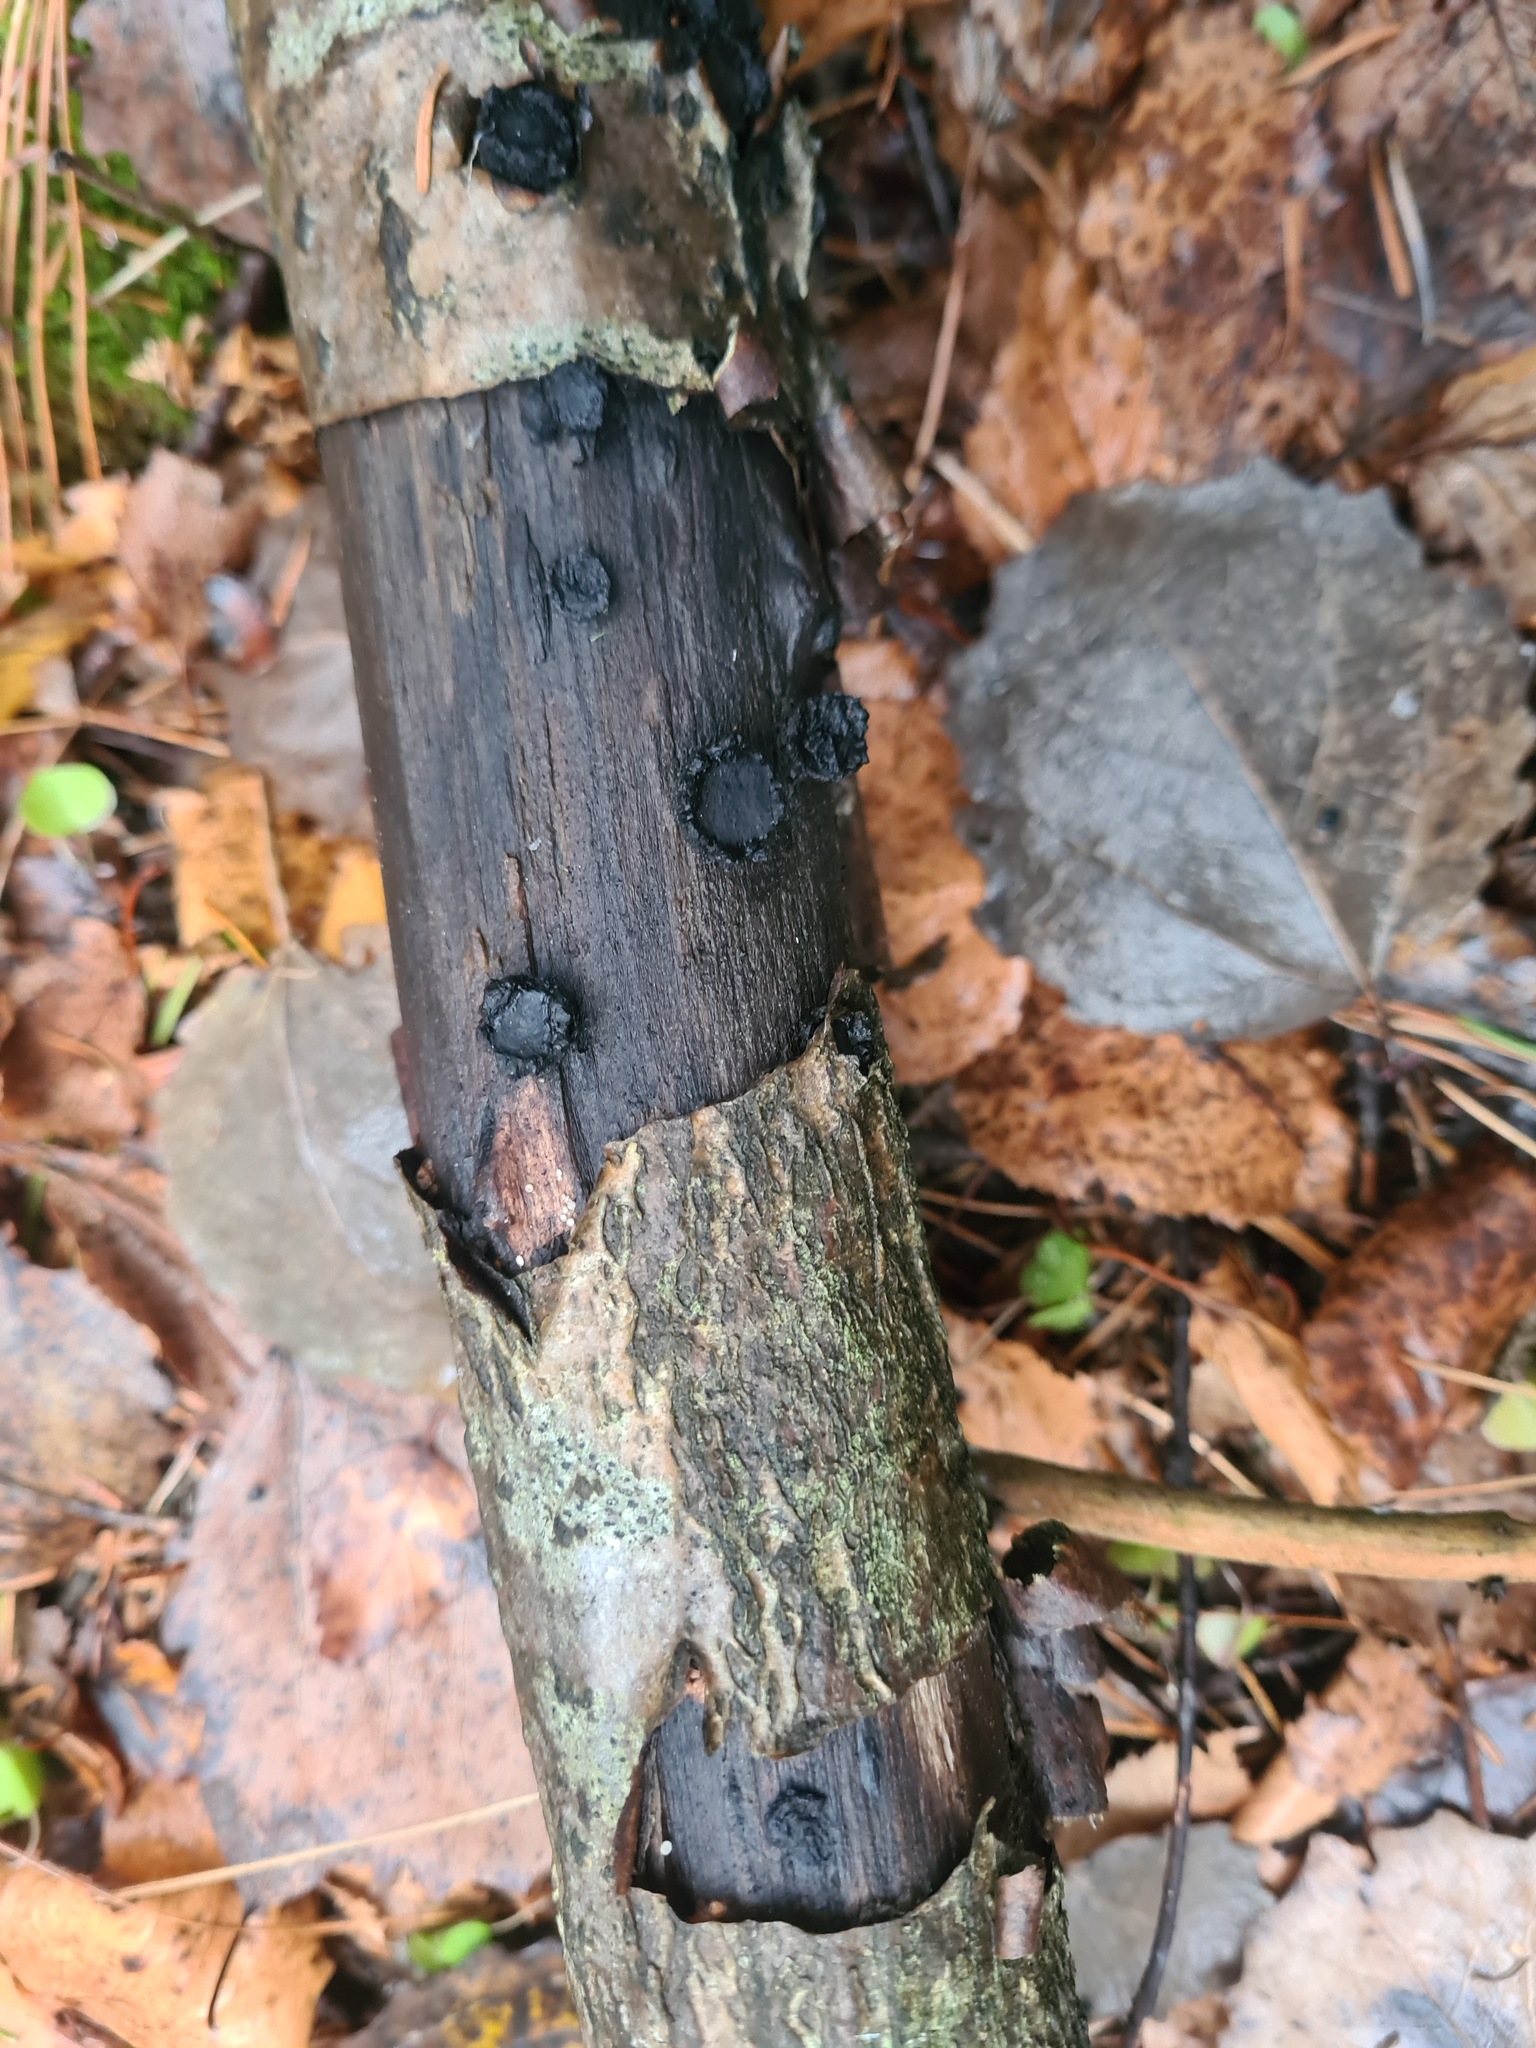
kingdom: Fungi
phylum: Ascomycota
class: Sordariomycetes
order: Xylariales
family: Graphostromataceae
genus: Biscogniauxia
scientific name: Biscogniauxia repanda
